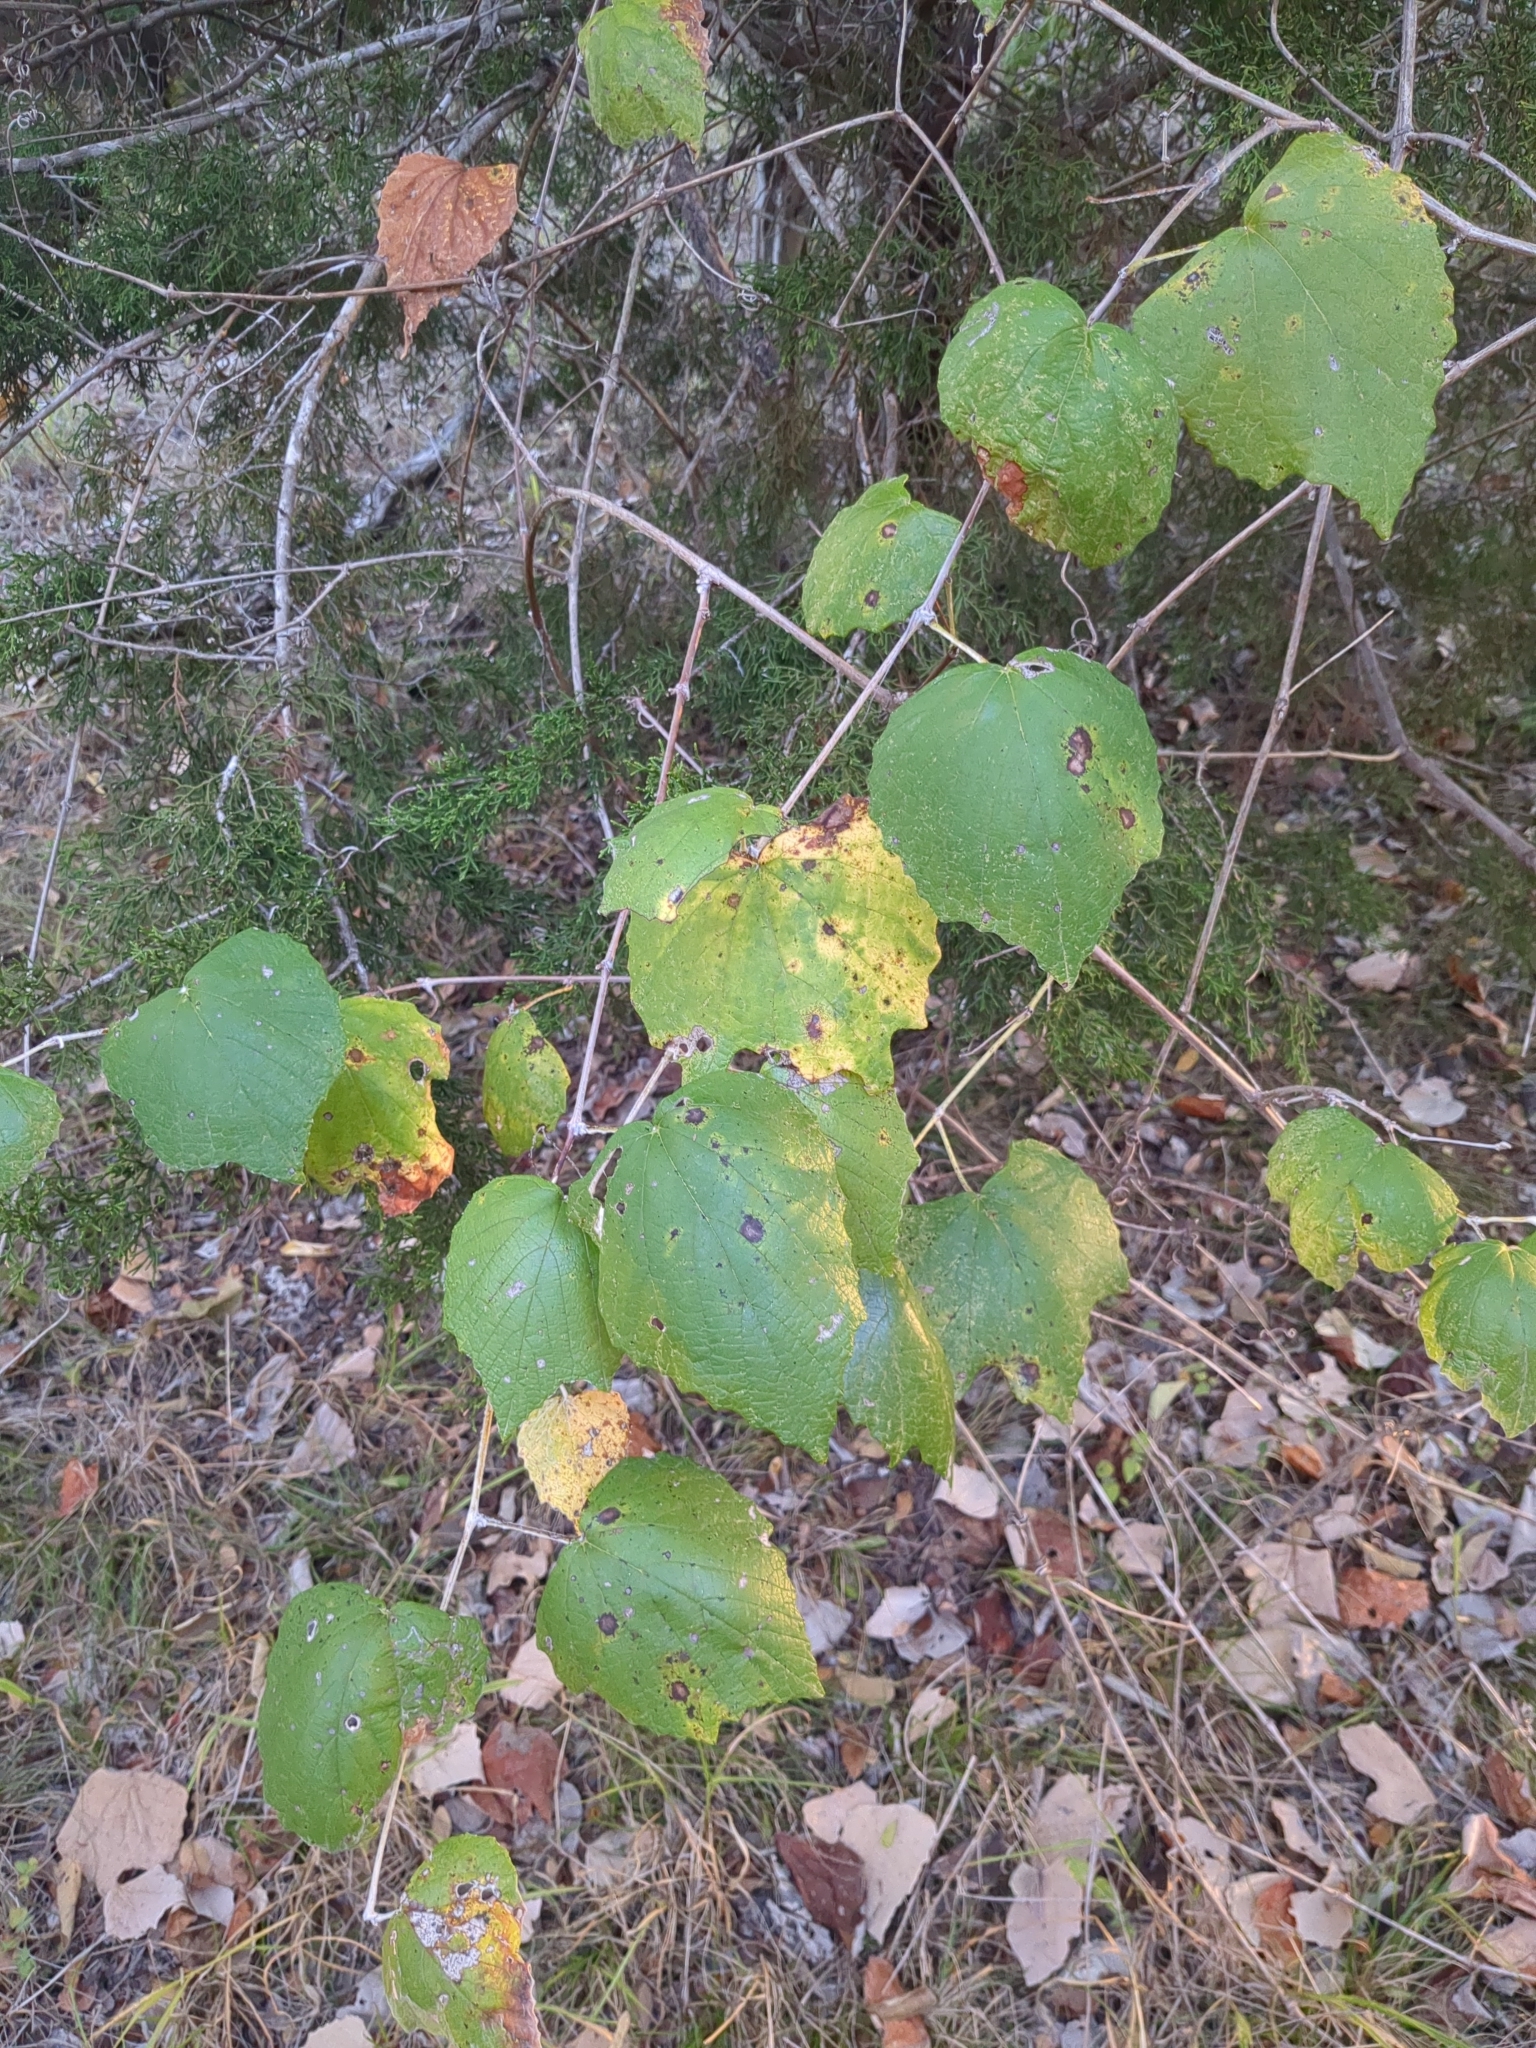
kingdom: Plantae
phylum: Tracheophyta
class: Magnoliopsida
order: Vitales
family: Vitaceae
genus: Vitis
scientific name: Vitis mustangensis
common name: Mustang grape
